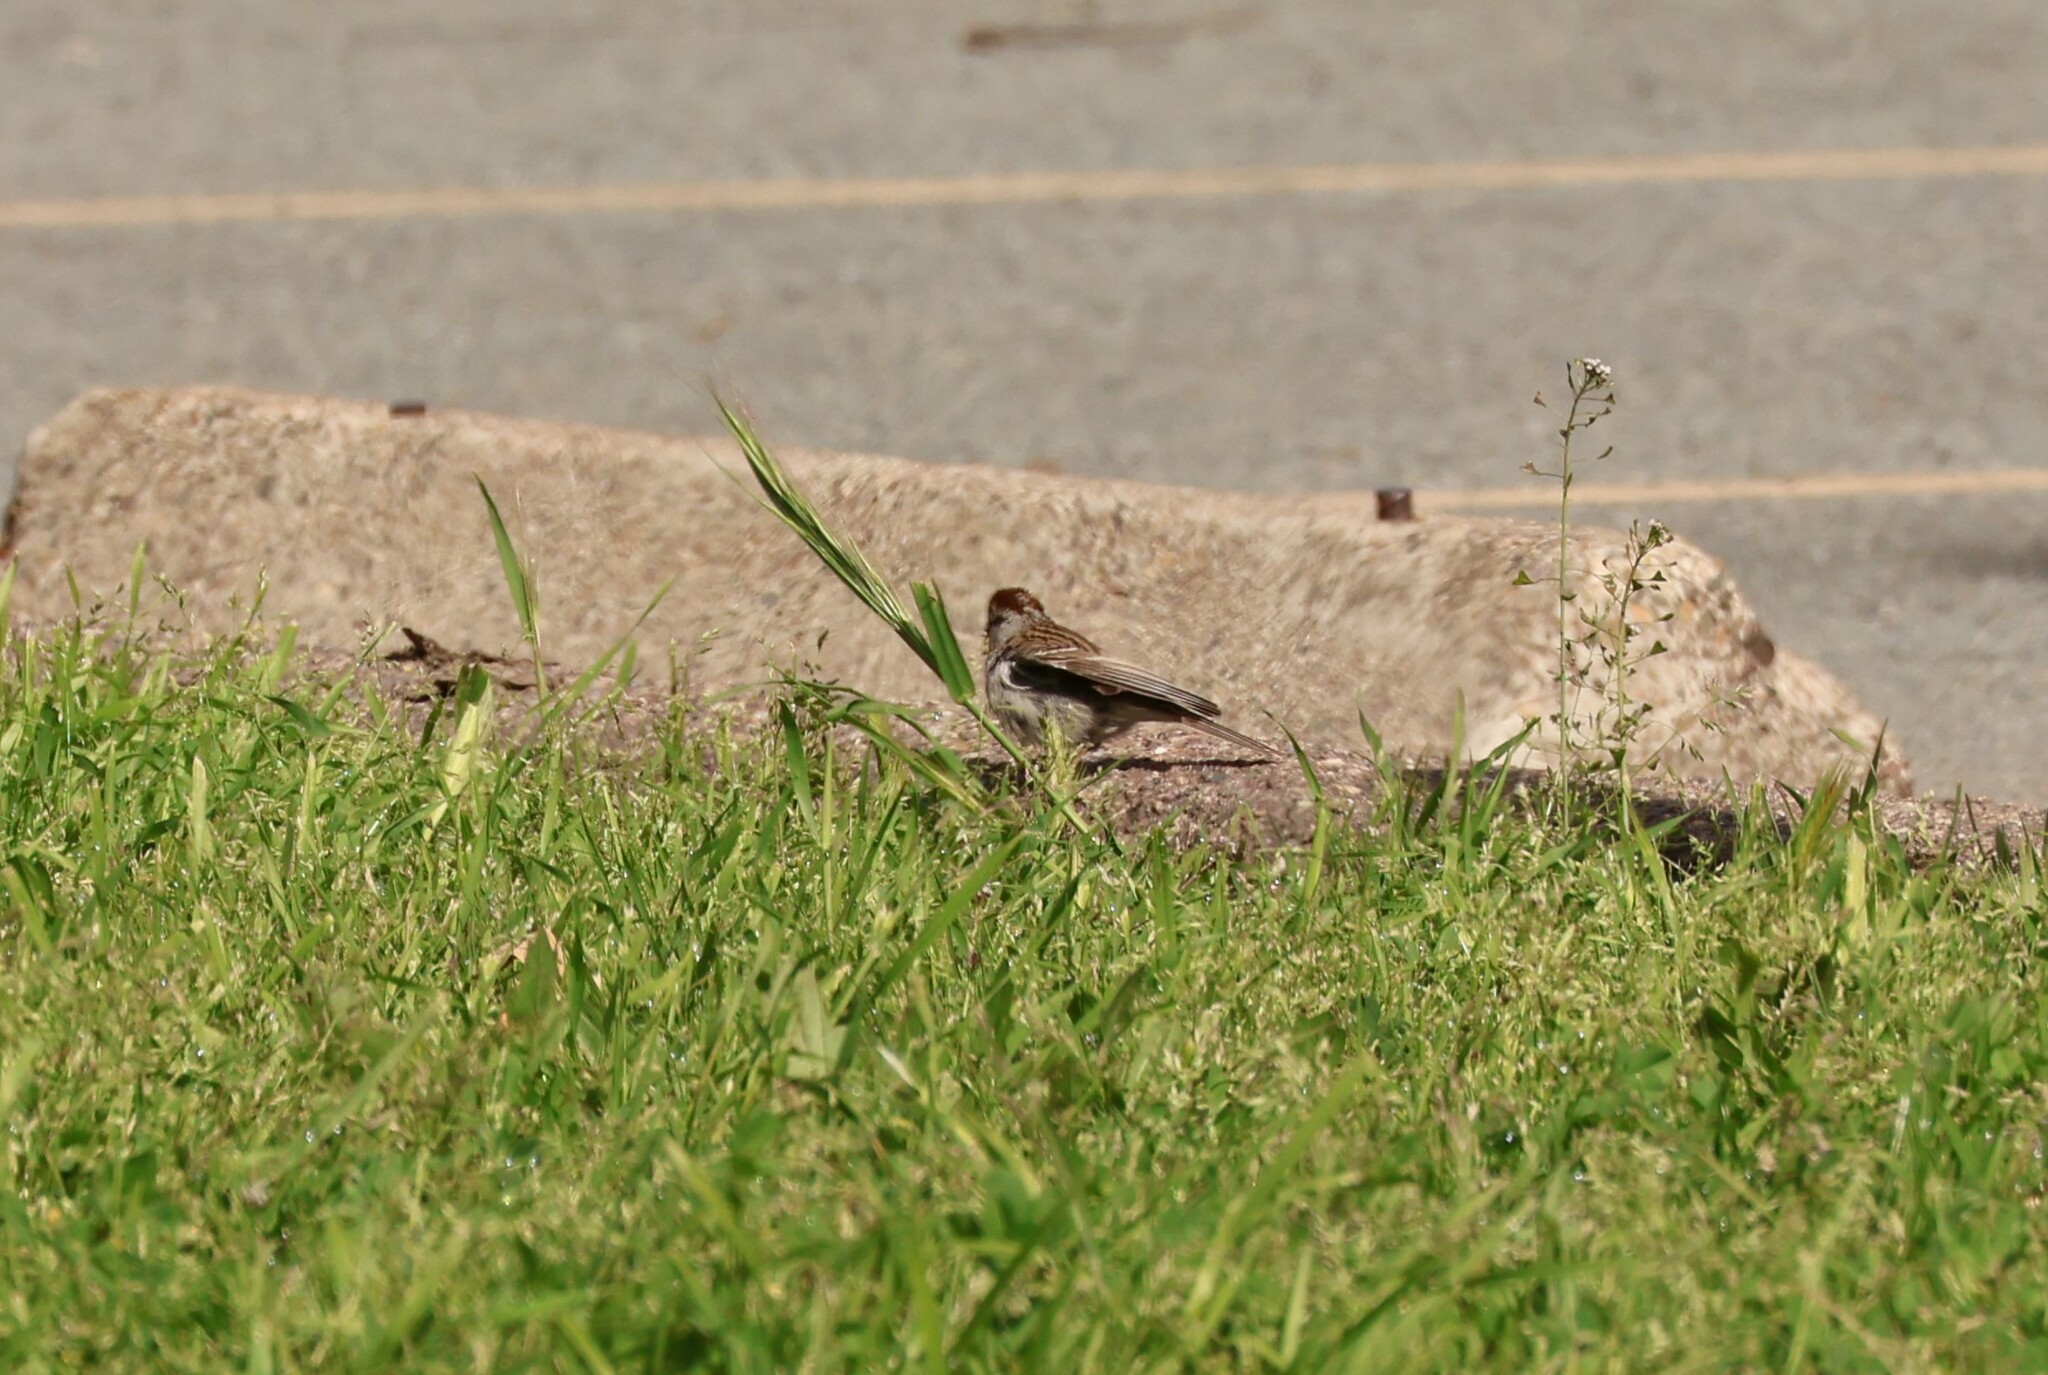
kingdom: Animalia
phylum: Chordata
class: Aves
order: Passeriformes
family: Passerellidae
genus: Spizella
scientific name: Spizella passerina
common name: Chipping sparrow
